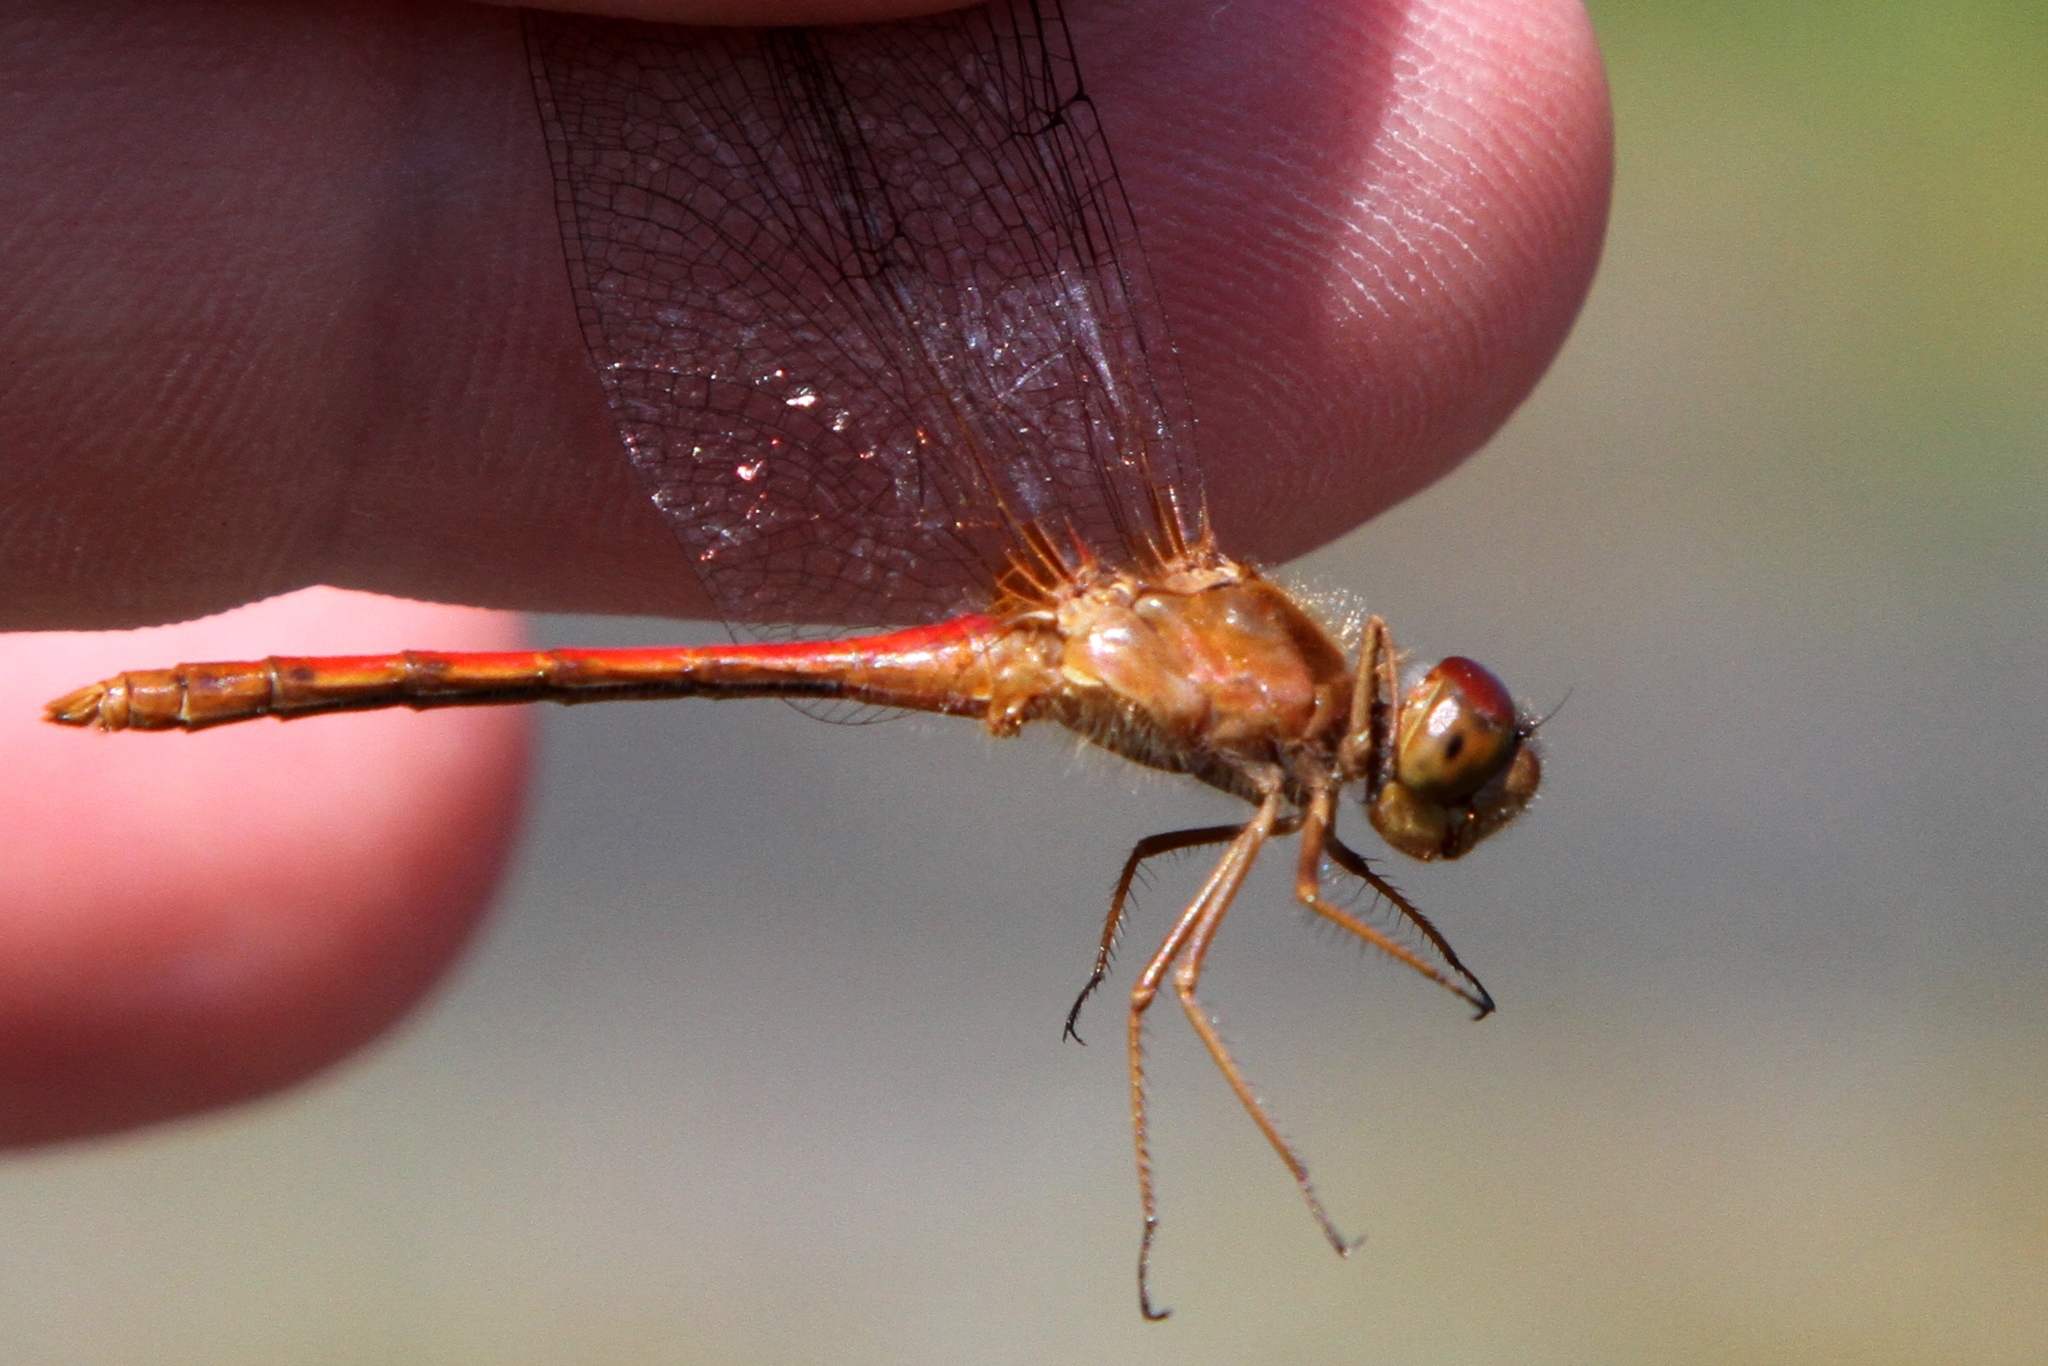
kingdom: Animalia
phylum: Arthropoda
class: Insecta
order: Odonata
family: Libellulidae
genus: Sympetrum
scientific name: Sympetrum vicinum
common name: Autumn meadowhawk
